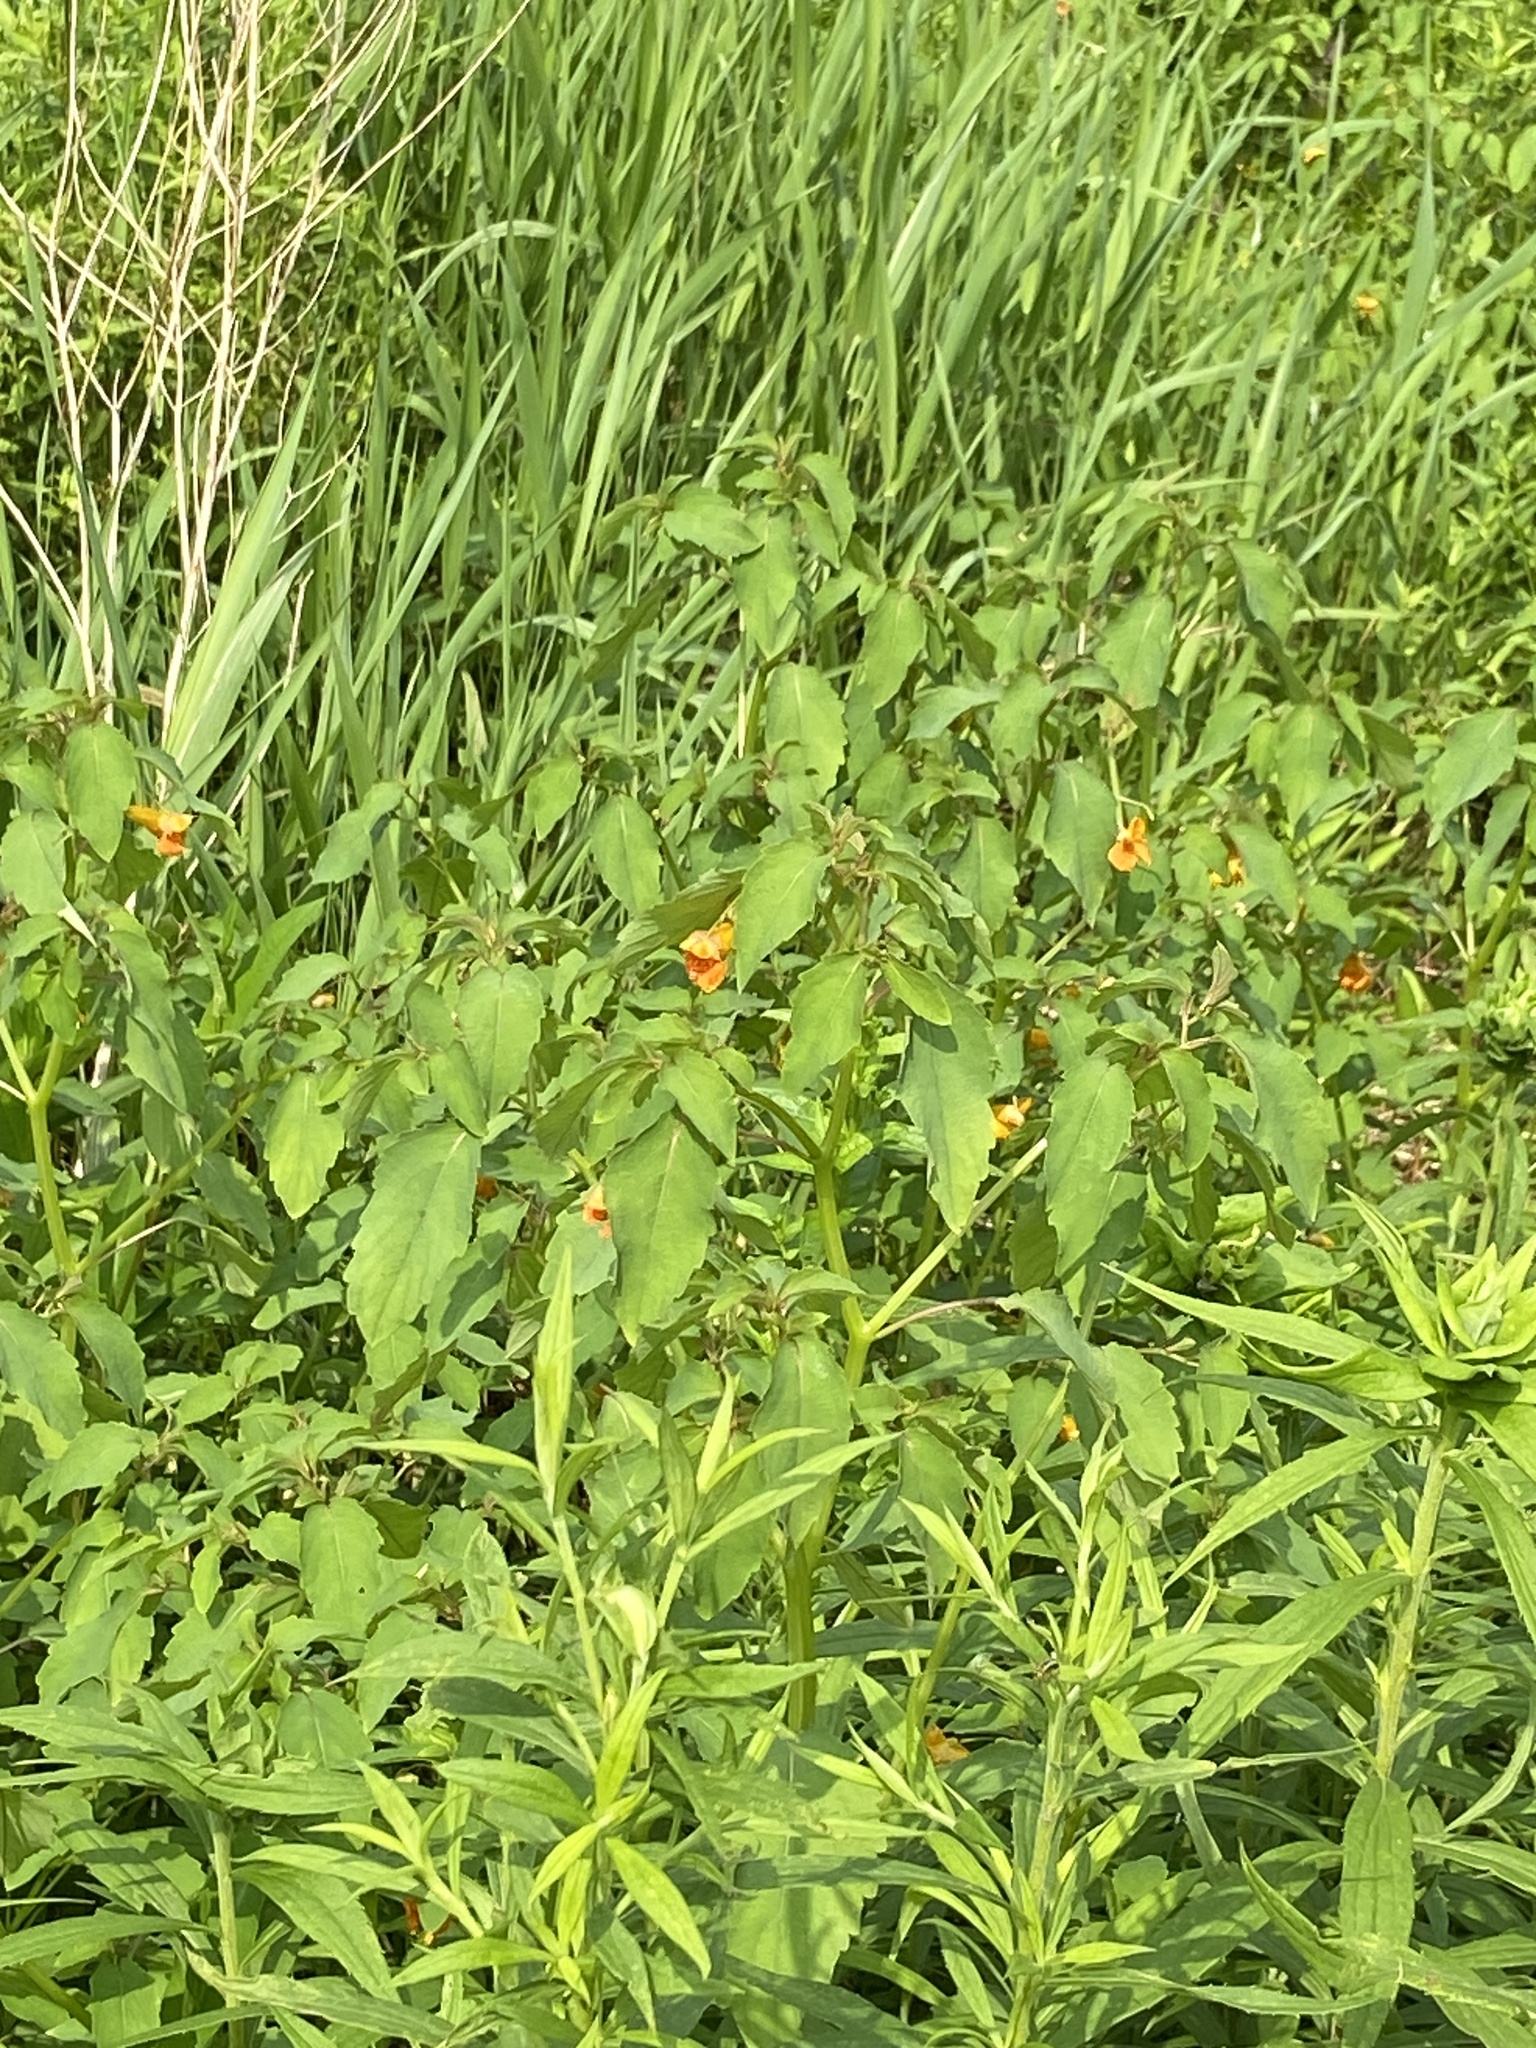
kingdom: Plantae
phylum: Tracheophyta
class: Magnoliopsida
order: Ericales
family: Balsaminaceae
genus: Impatiens
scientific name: Impatiens capensis
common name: Orange balsam
